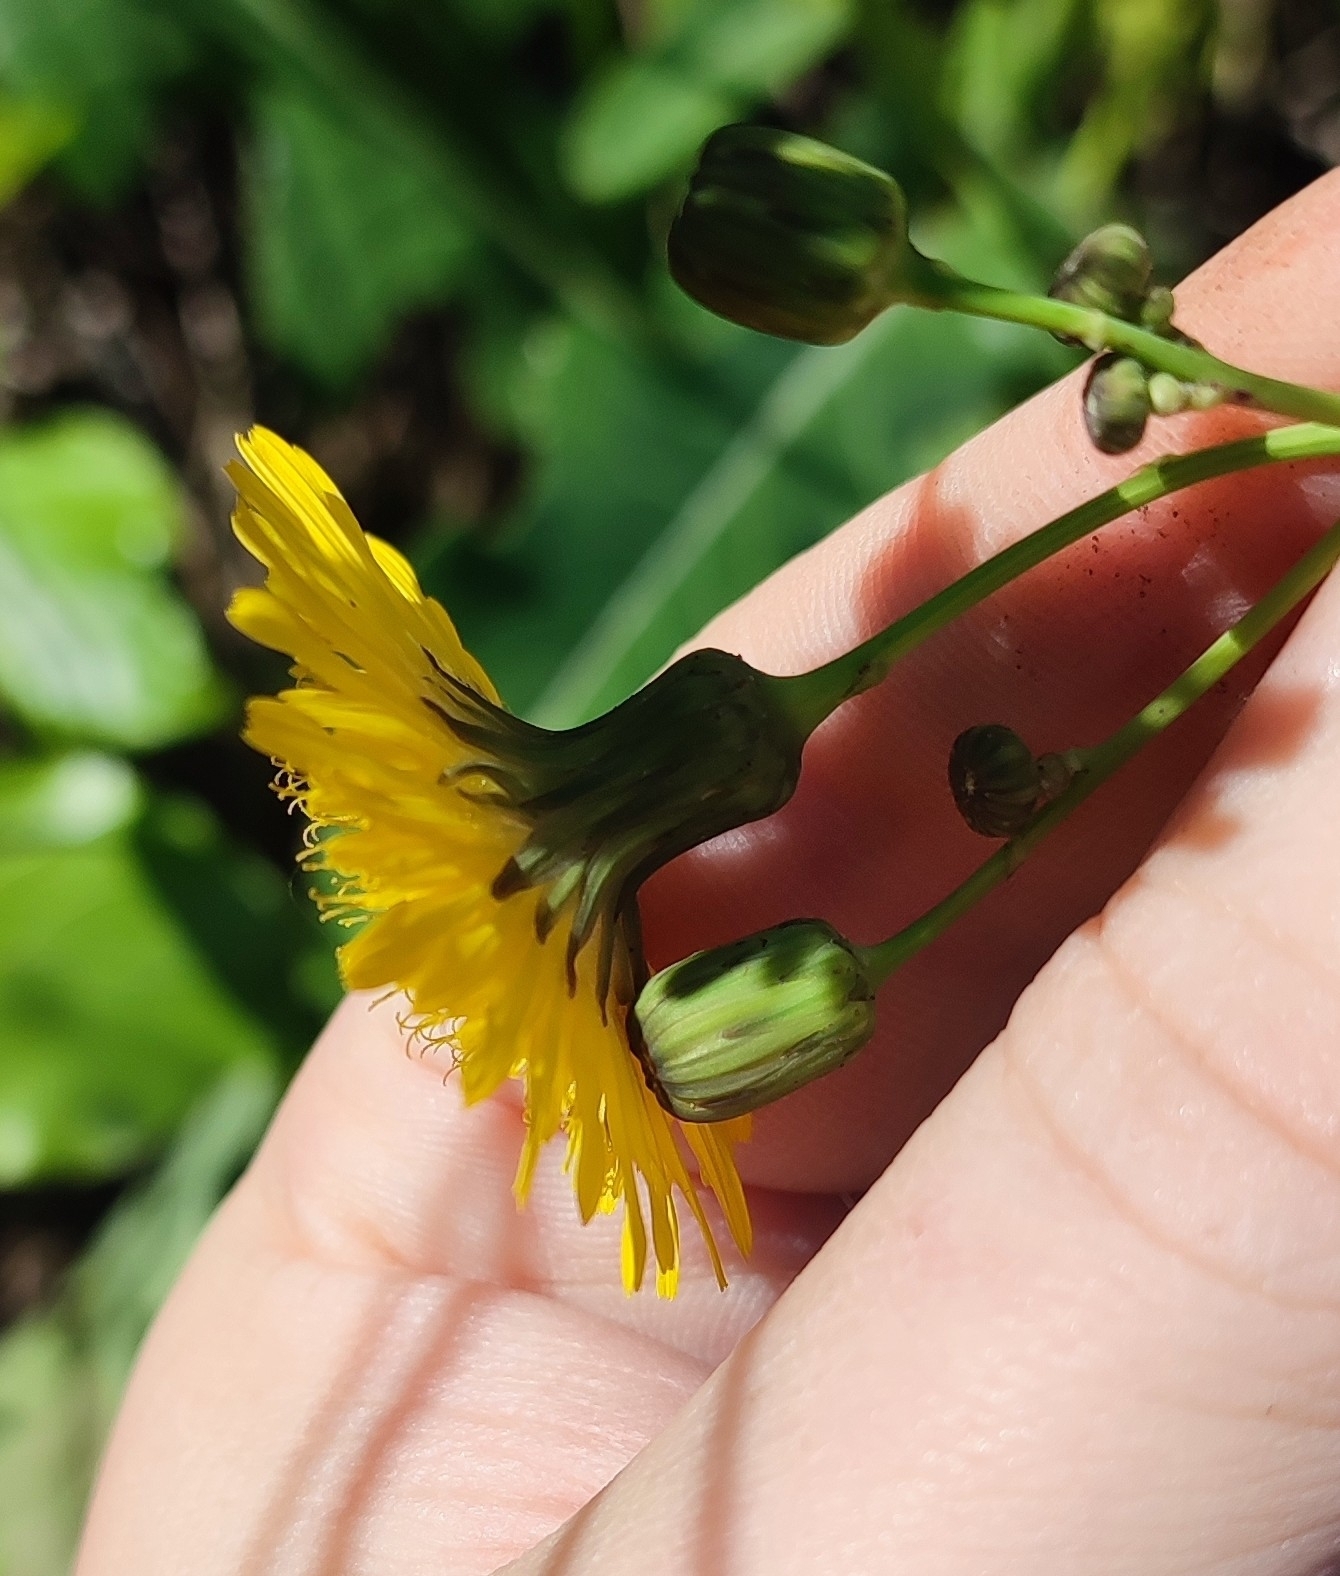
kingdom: Plantae
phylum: Tracheophyta
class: Magnoliopsida
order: Asterales
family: Asteraceae
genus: Sonchus
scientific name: Sonchus arvensis
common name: Perennial sow-thistle
